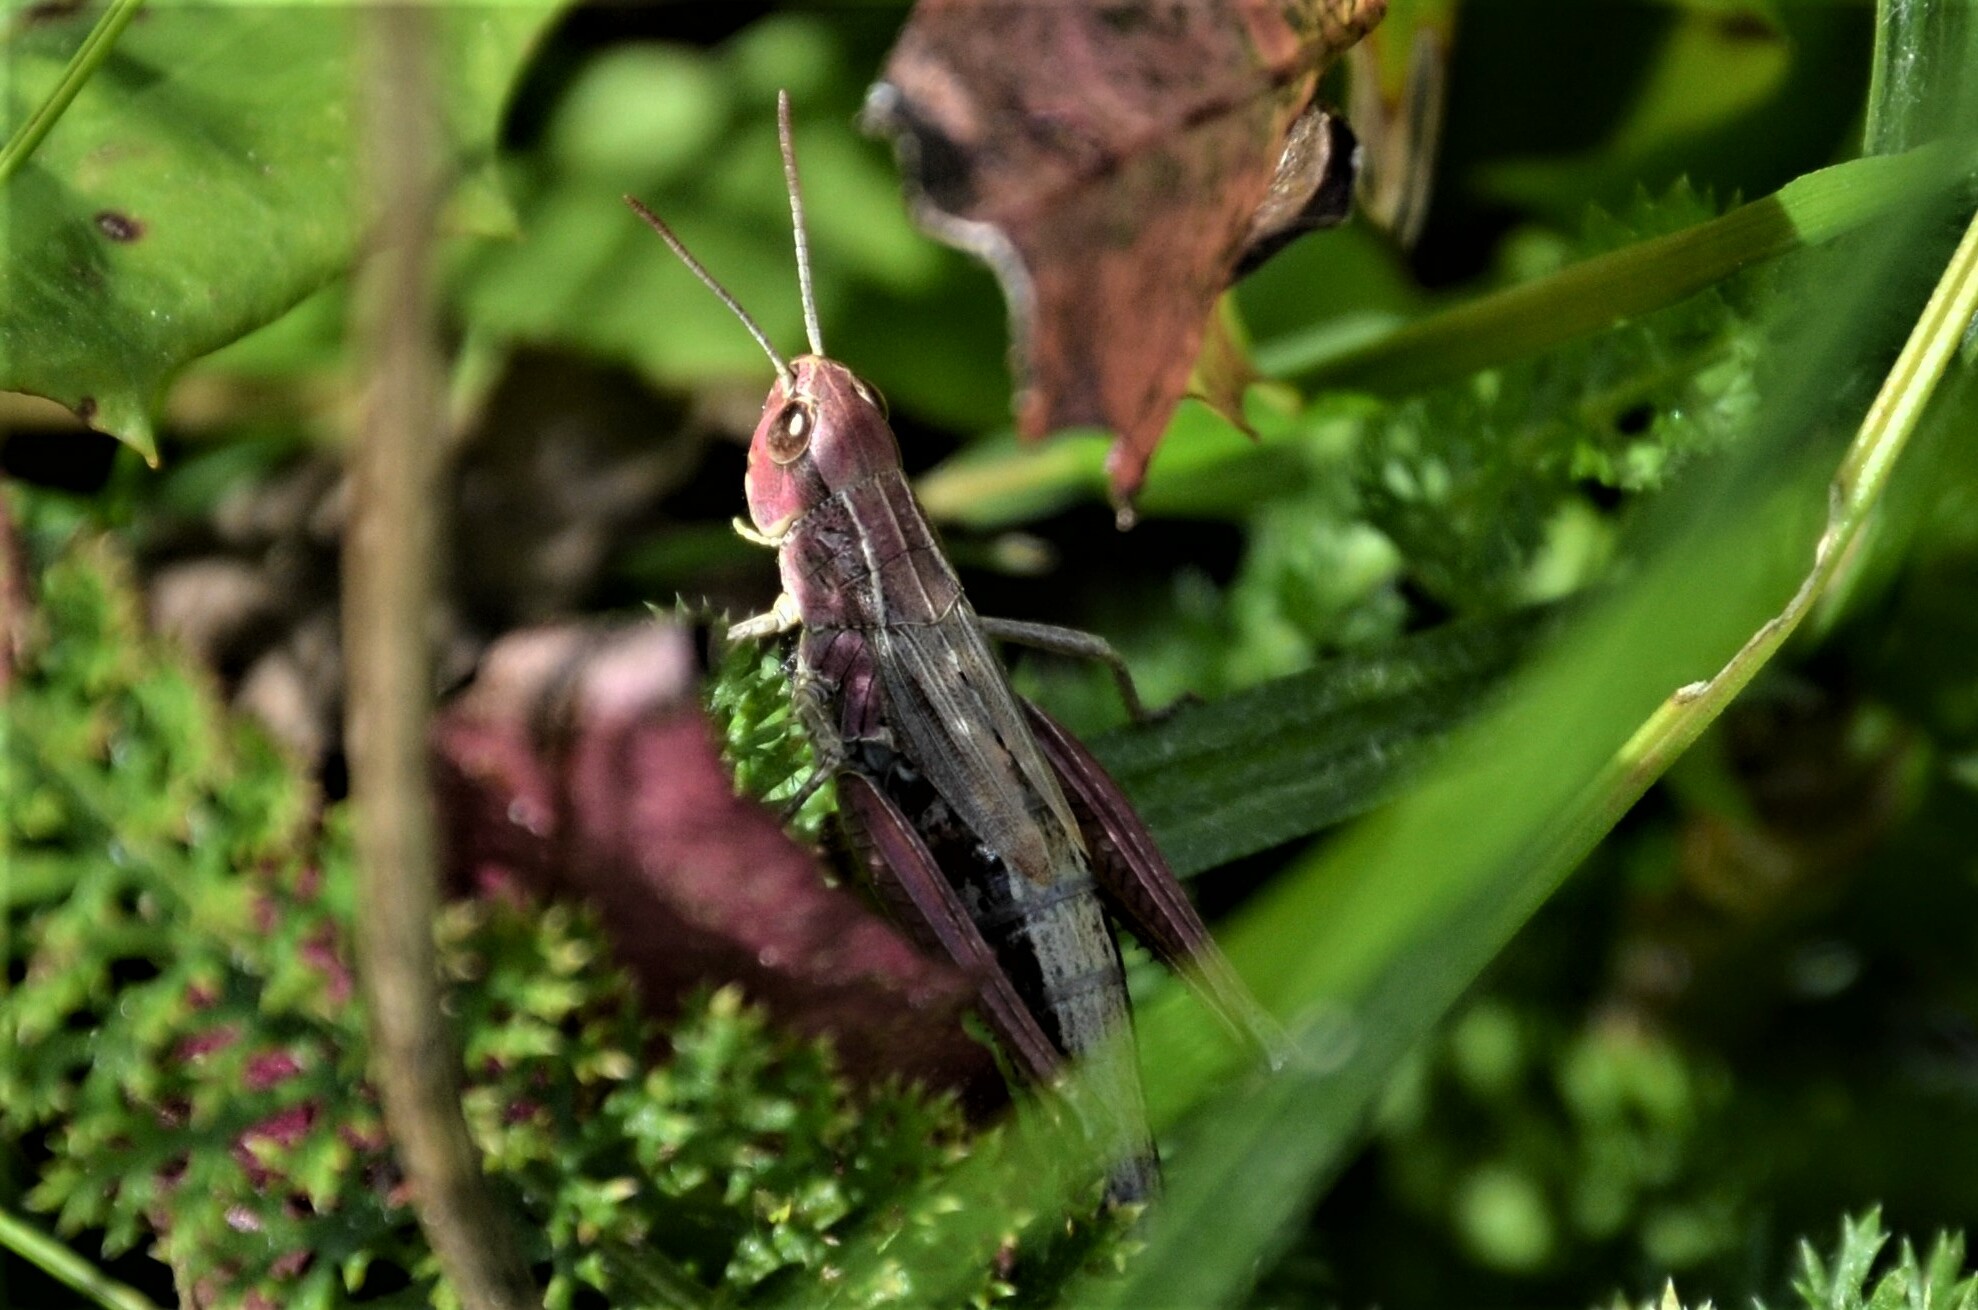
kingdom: Animalia
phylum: Arthropoda
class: Insecta
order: Orthoptera
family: Acrididae
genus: Pseudochorthippus
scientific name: Pseudochorthippus parallelus
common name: Meadow grasshopper
